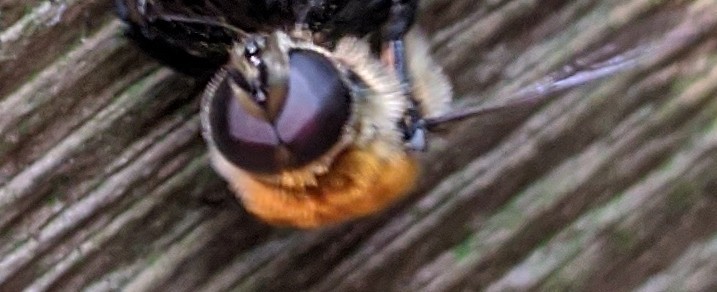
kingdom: Animalia
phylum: Arthropoda
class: Insecta
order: Diptera
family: Syrphidae
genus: Merodon
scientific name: Merodon equestris
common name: Greater bulb-fly
